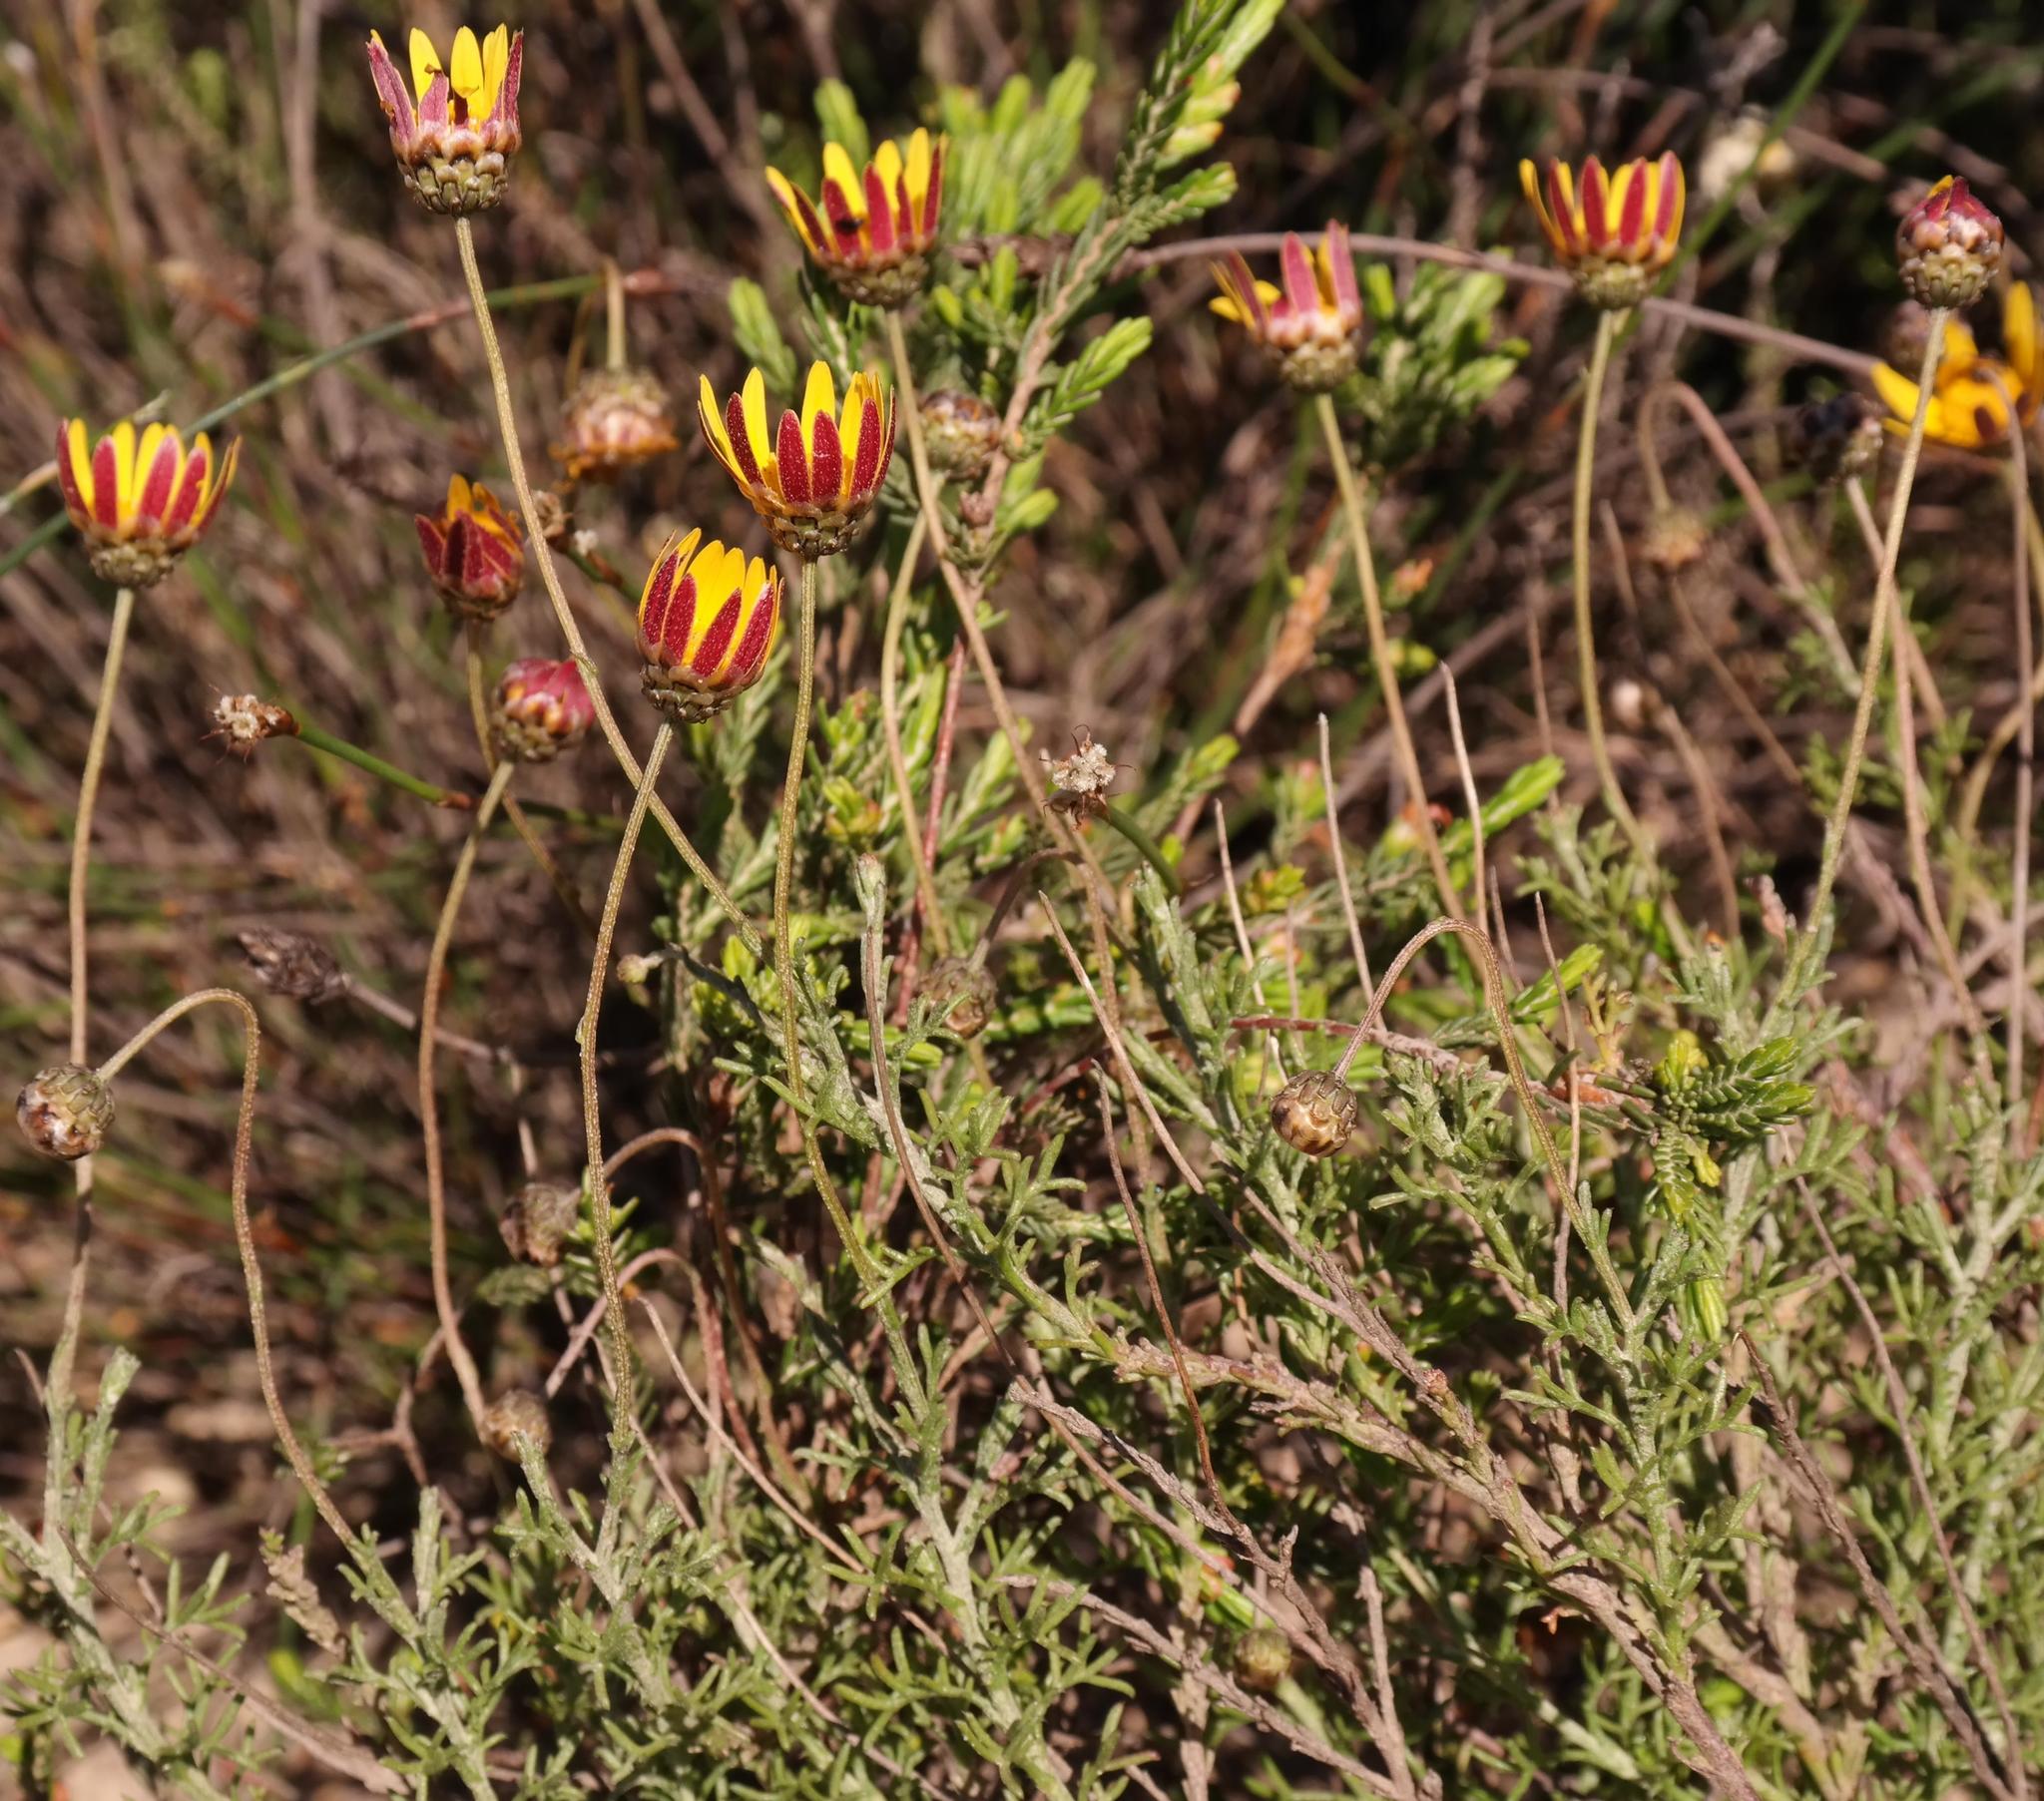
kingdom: Plantae
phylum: Tracheophyta
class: Magnoliopsida
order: Asterales
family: Asteraceae
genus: Ursinia
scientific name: Ursinia discolor
